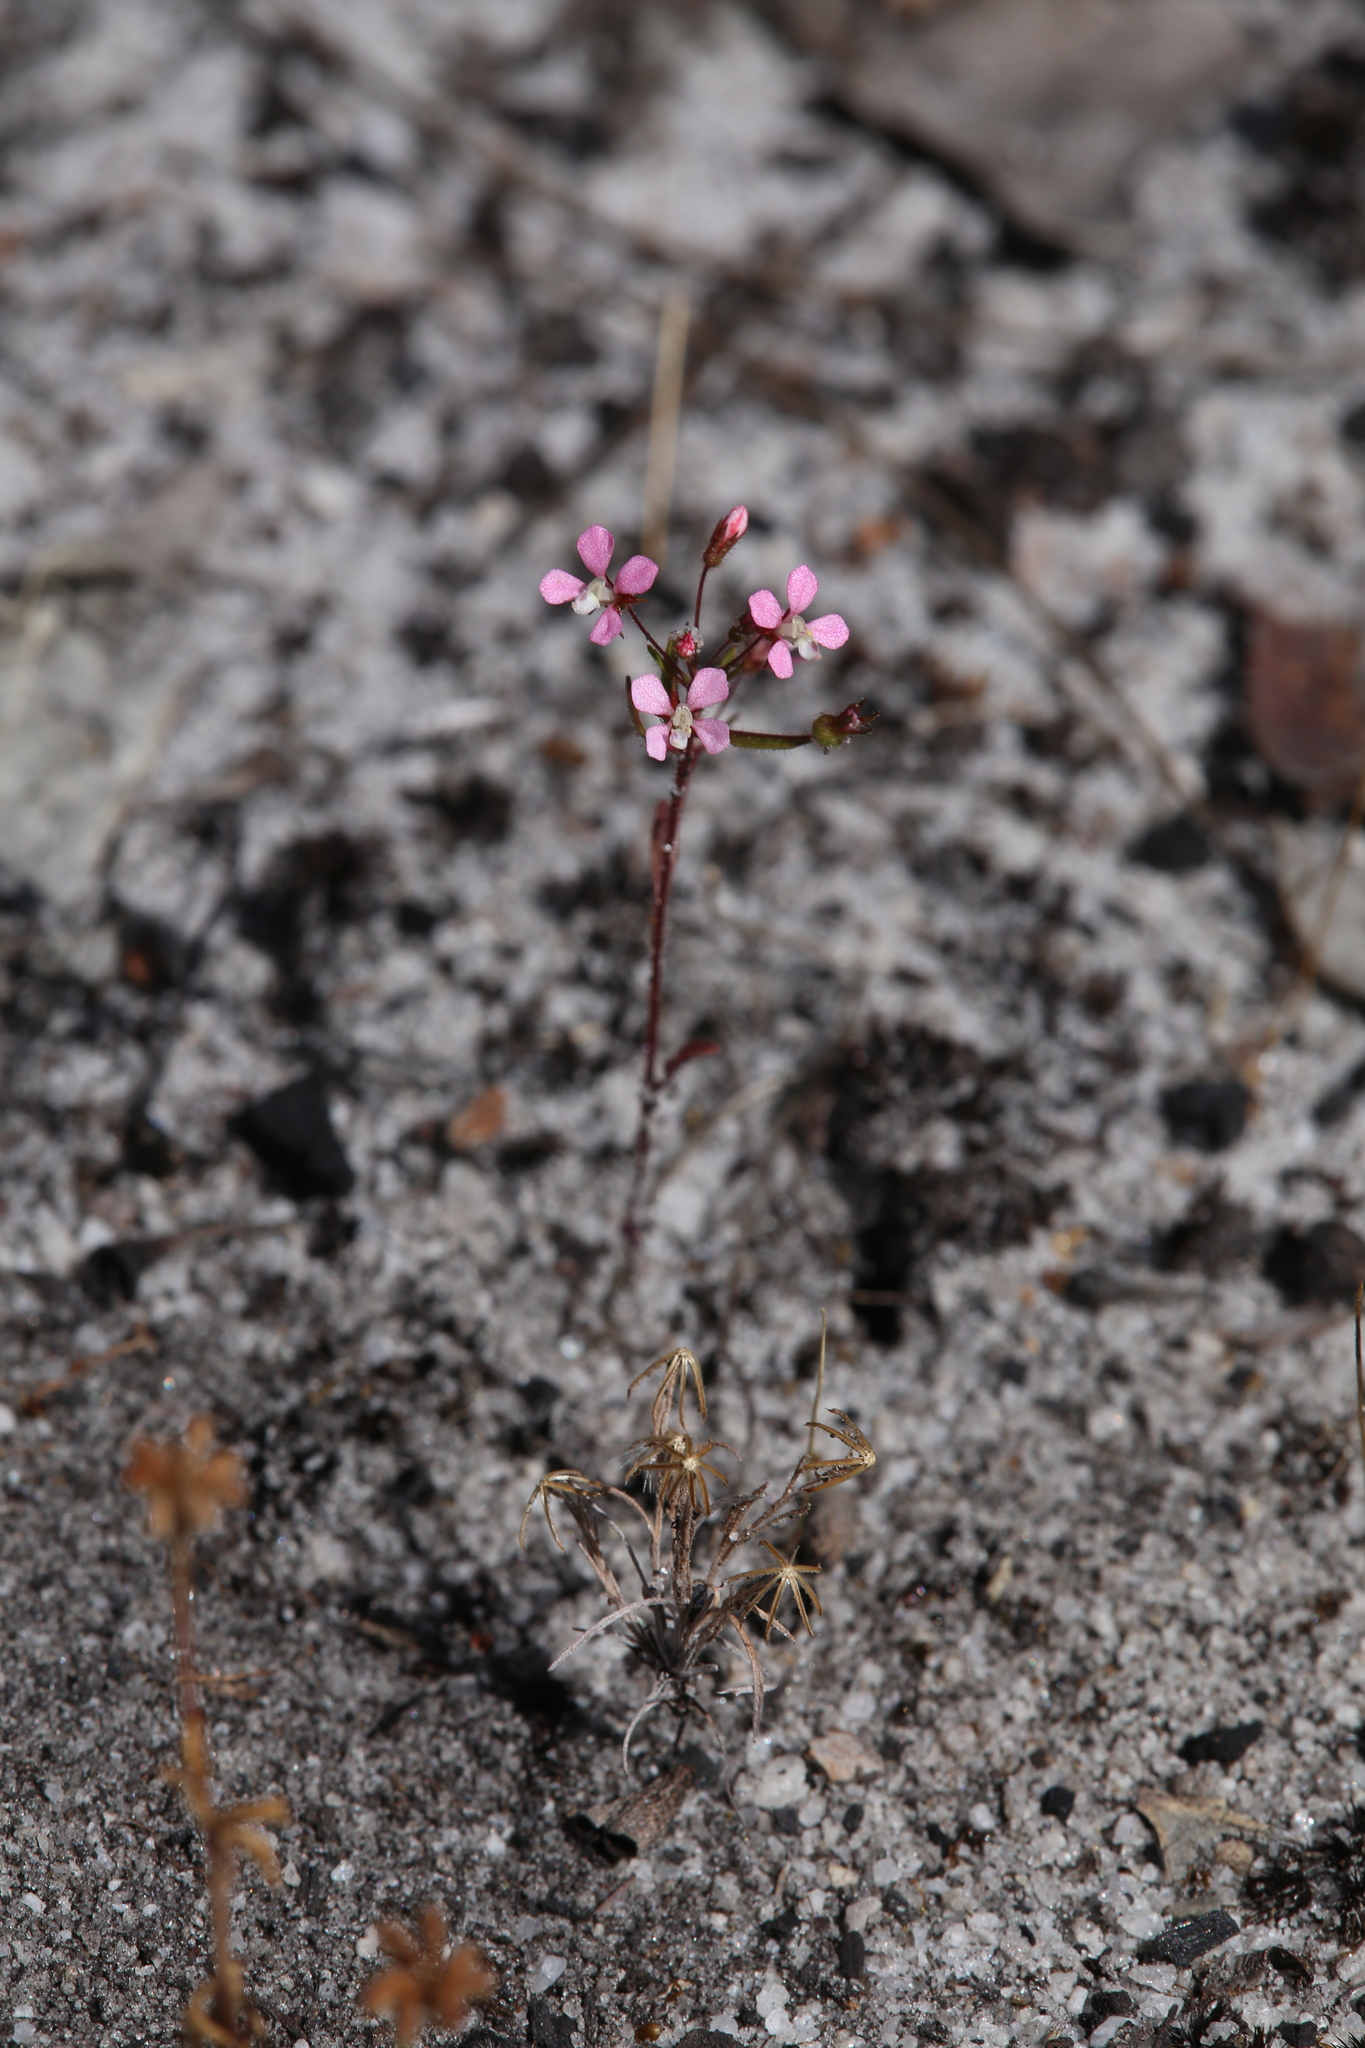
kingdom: Plantae
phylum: Tracheophyta
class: Magnoliopsida
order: Asterales
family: Stylidiaceae
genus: Levenhookia
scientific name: Levenhookia stipitata
